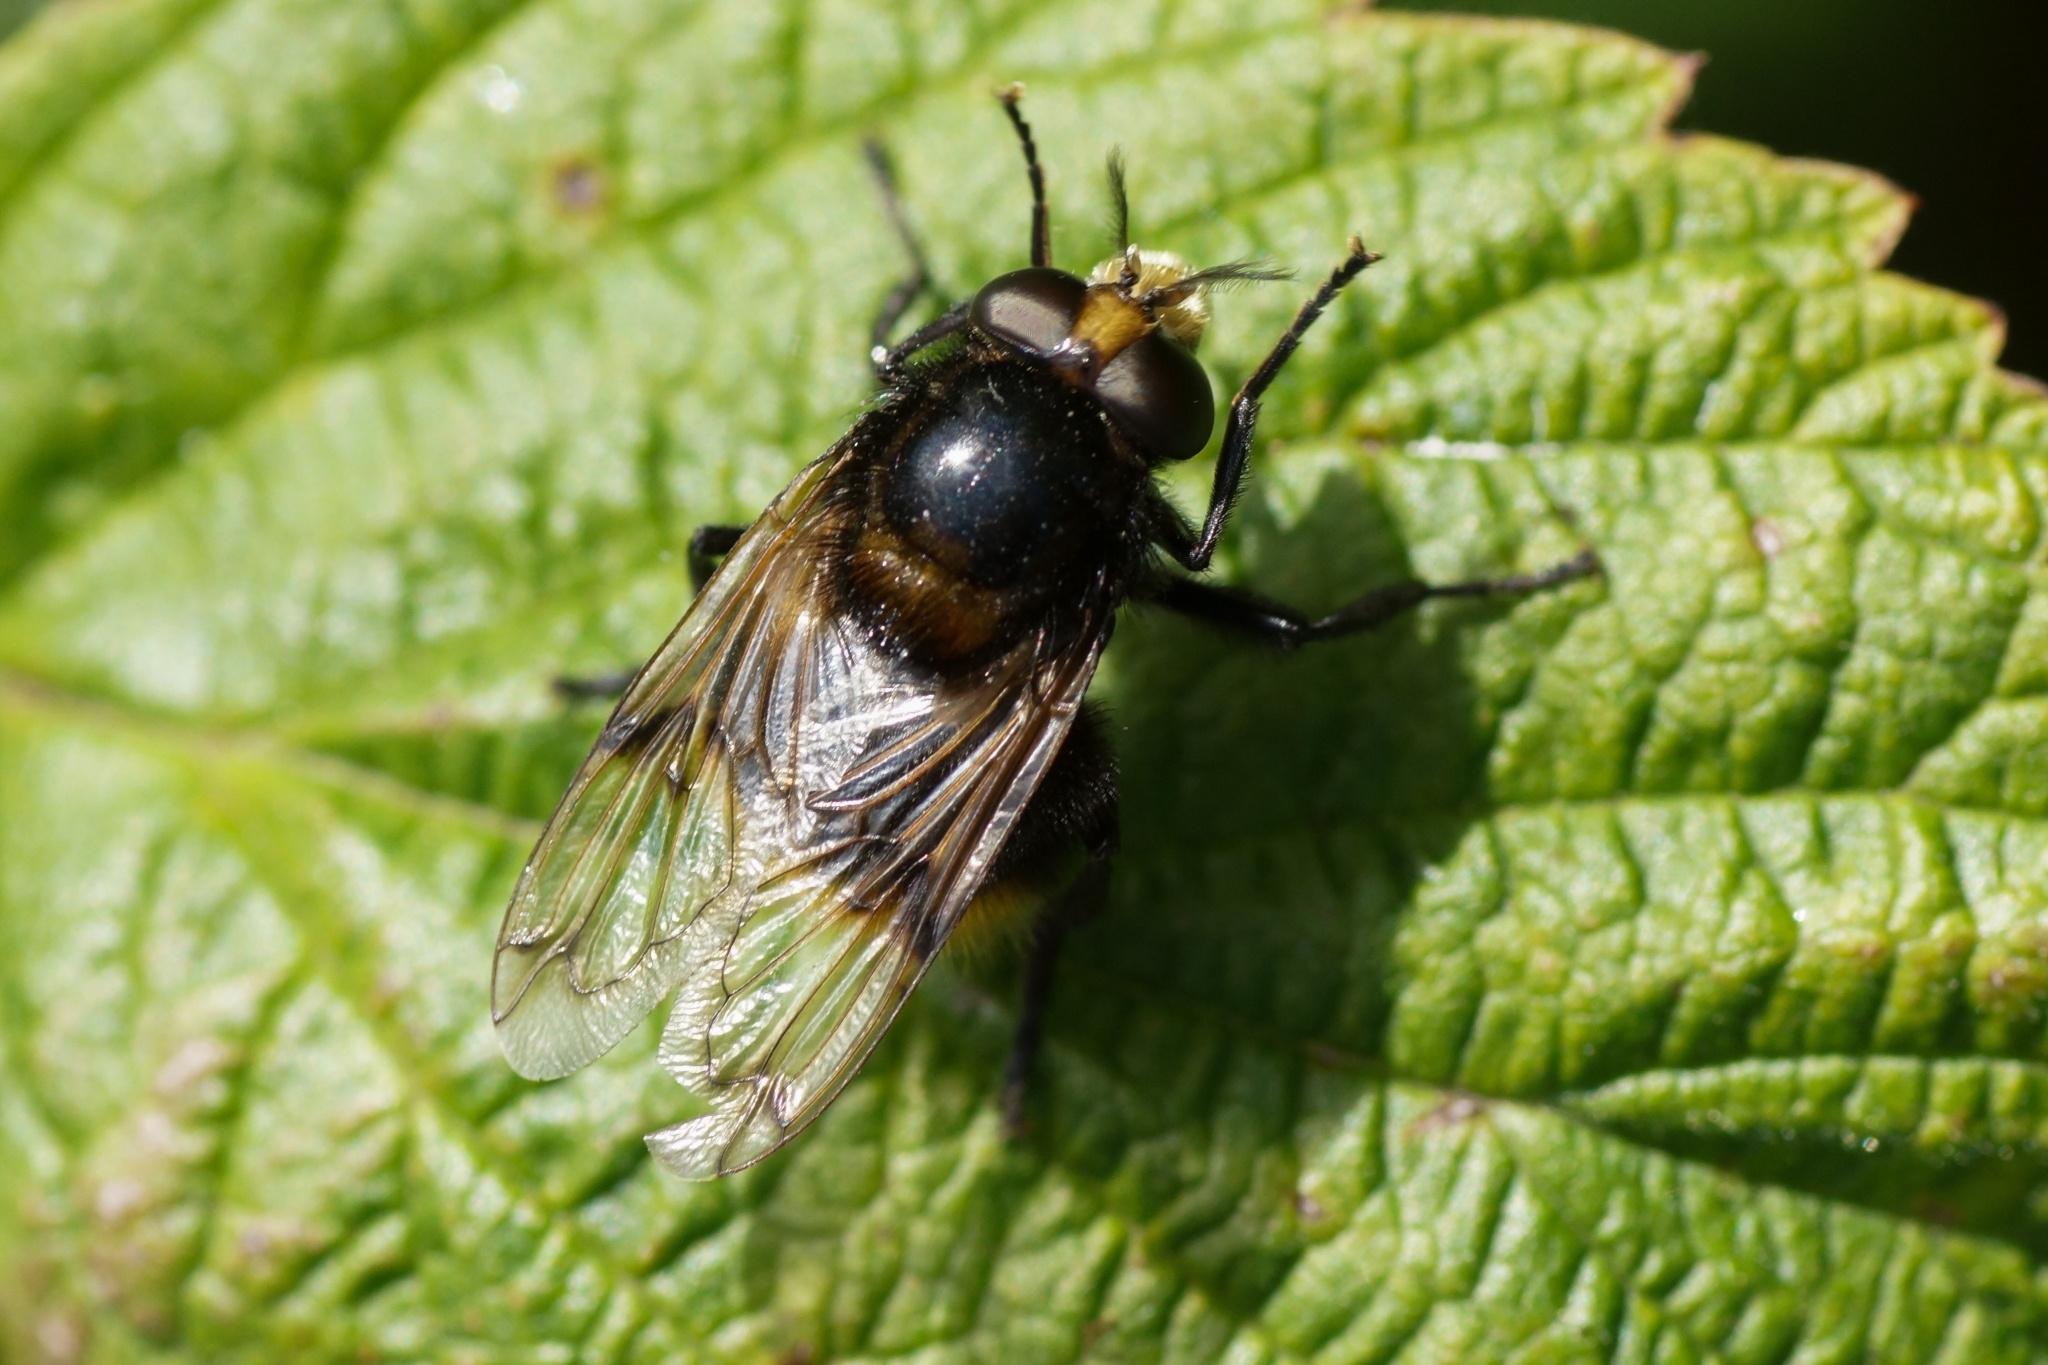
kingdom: Animalia
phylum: Arthropoda
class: Insecta
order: Diptera
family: Syrphidae
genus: Volucella
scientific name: Volucella bombylans
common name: Bumble bee hover fly
